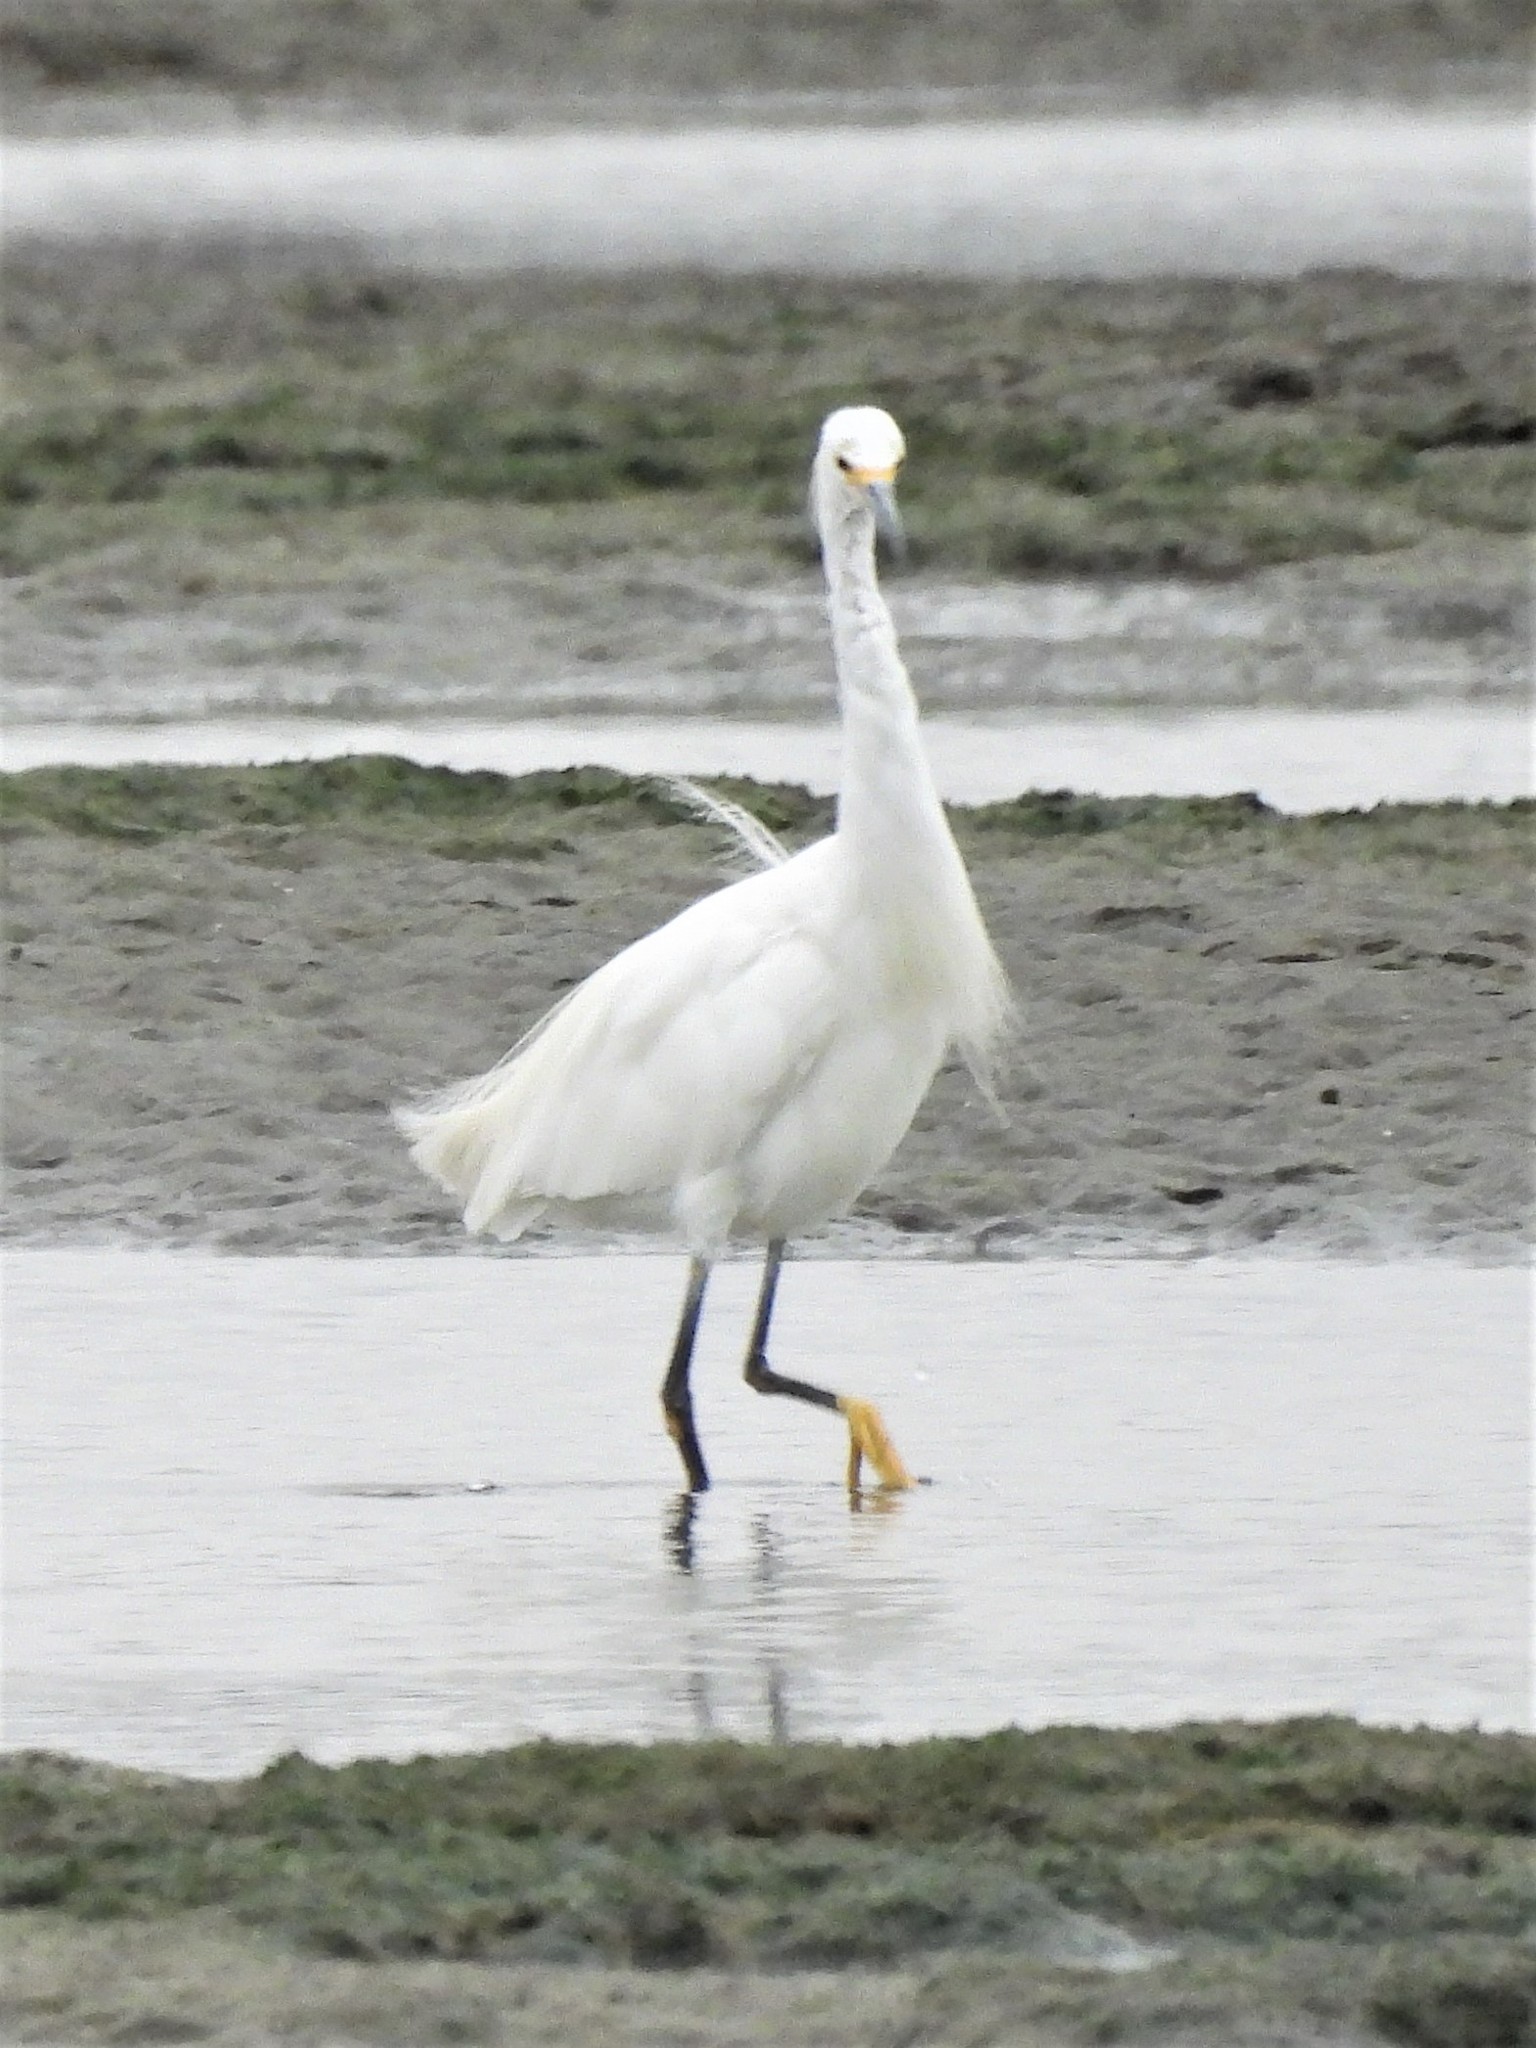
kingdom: Animalia
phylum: Chordata
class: Aves
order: Pelecaniformes
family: Ardeidae
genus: Egretta
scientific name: Egretta thula
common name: Snowy egret
